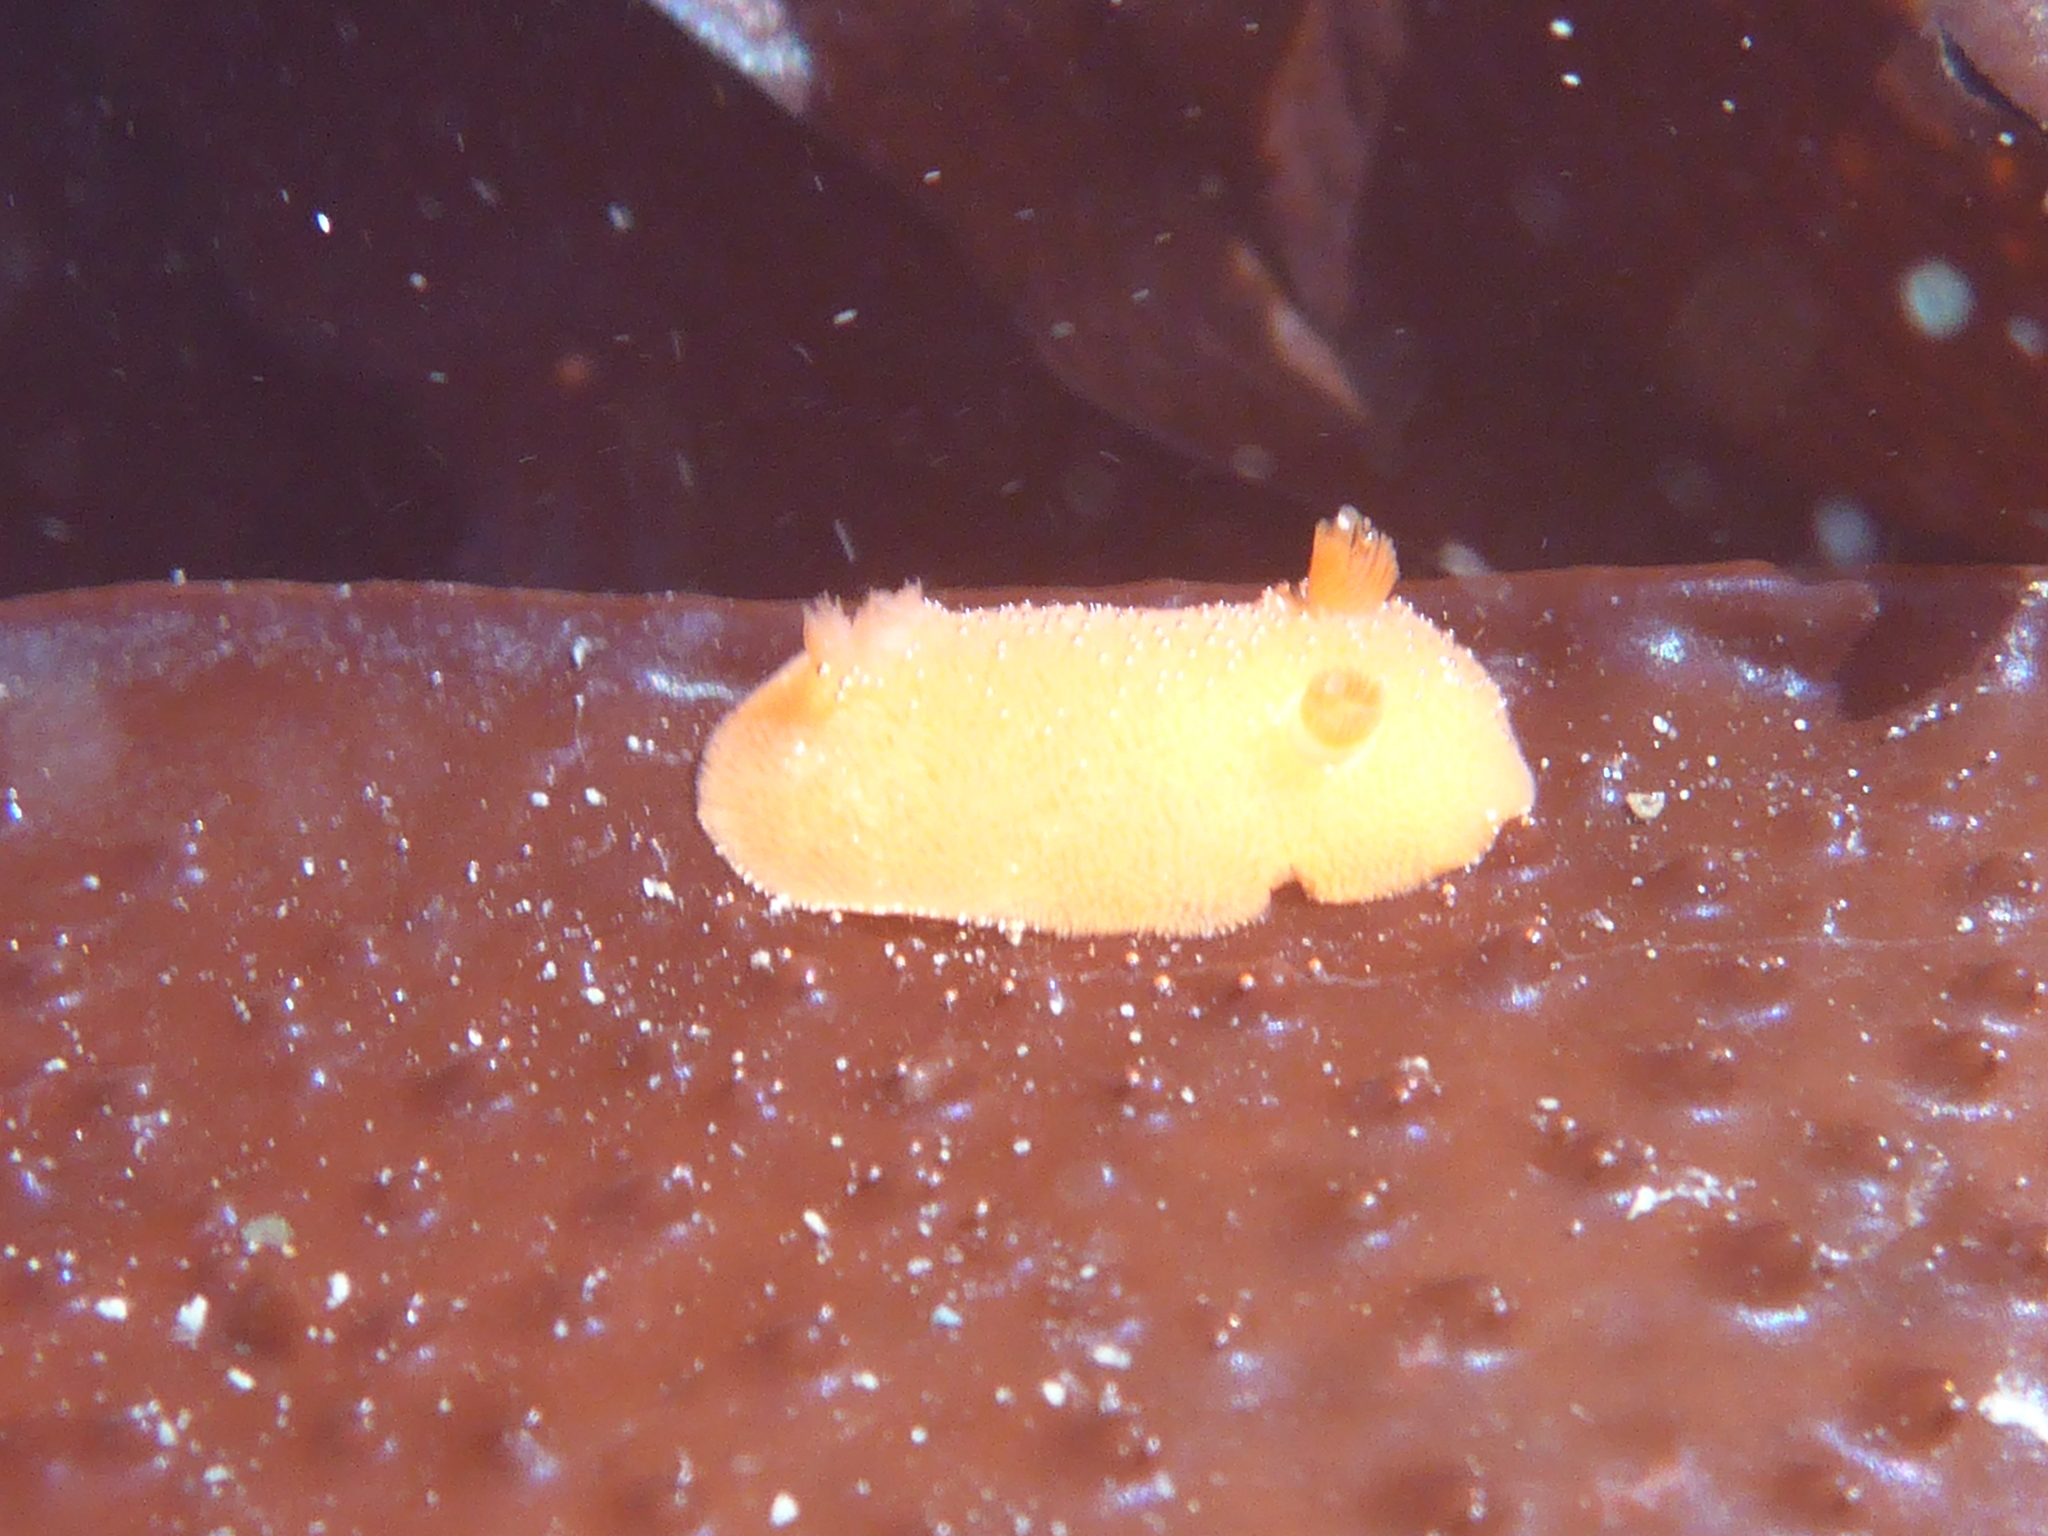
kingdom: Animalia
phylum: Mollusca
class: Gastropoda
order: Nudibranchia
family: Discodorididae
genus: Rostanga
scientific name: Rostanga pulchra
